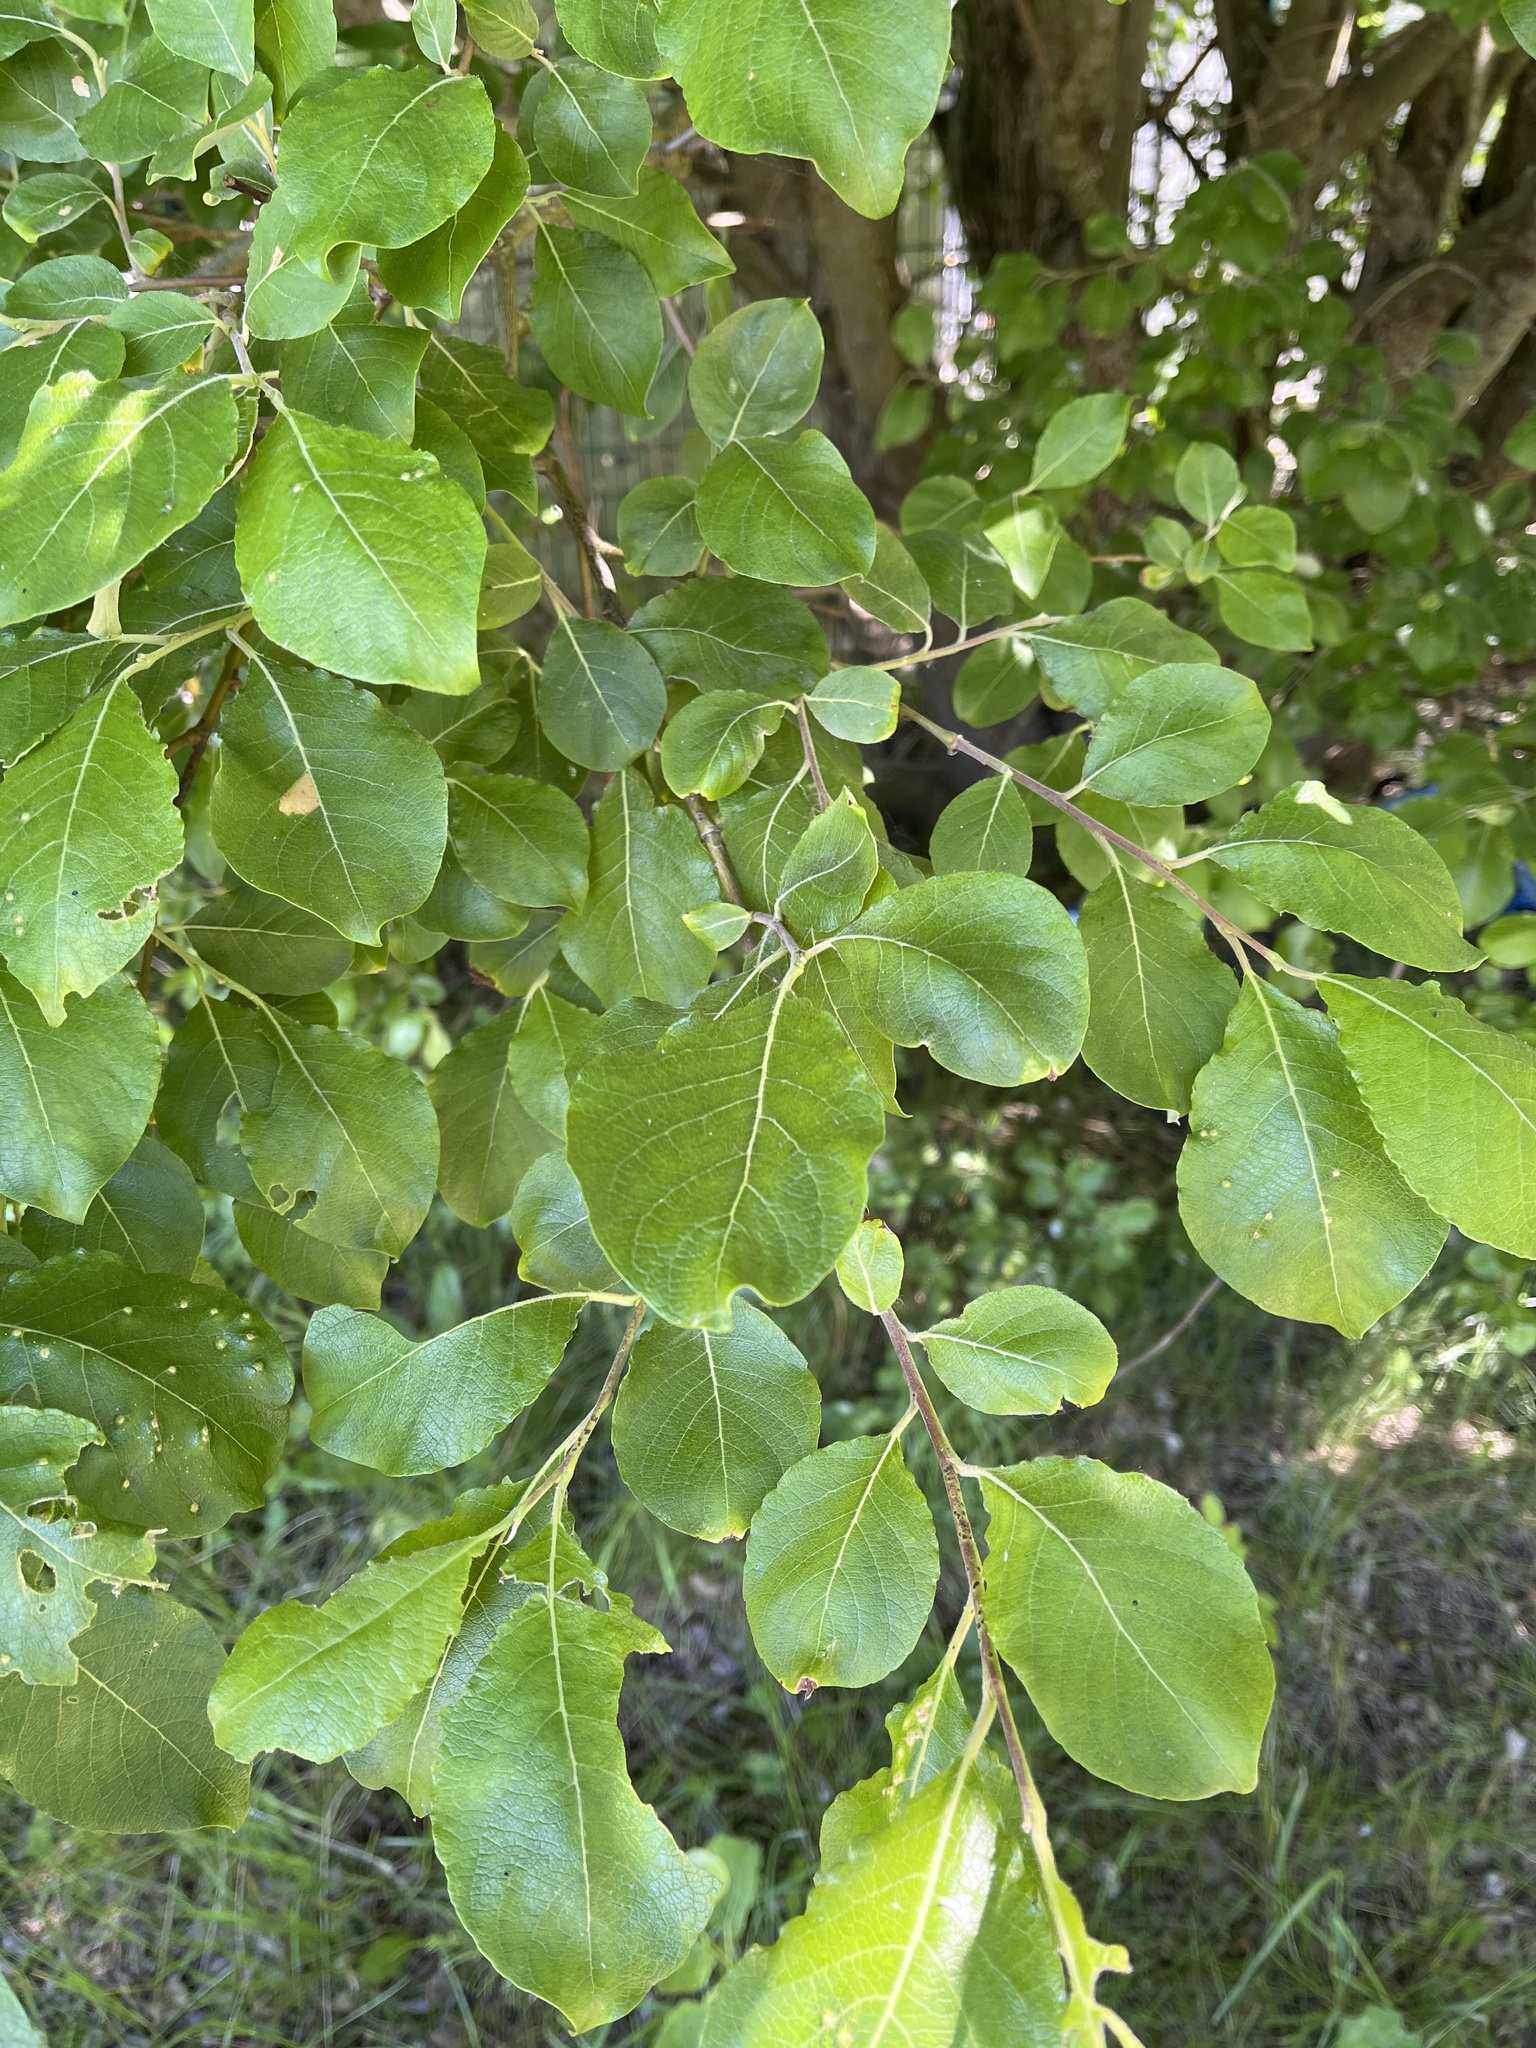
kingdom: Plantae
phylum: Tracheophyta
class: Magnoliopsida
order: Malpighiales
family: Salicaceae
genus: Salix
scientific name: Salix caprea
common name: Goat willow
